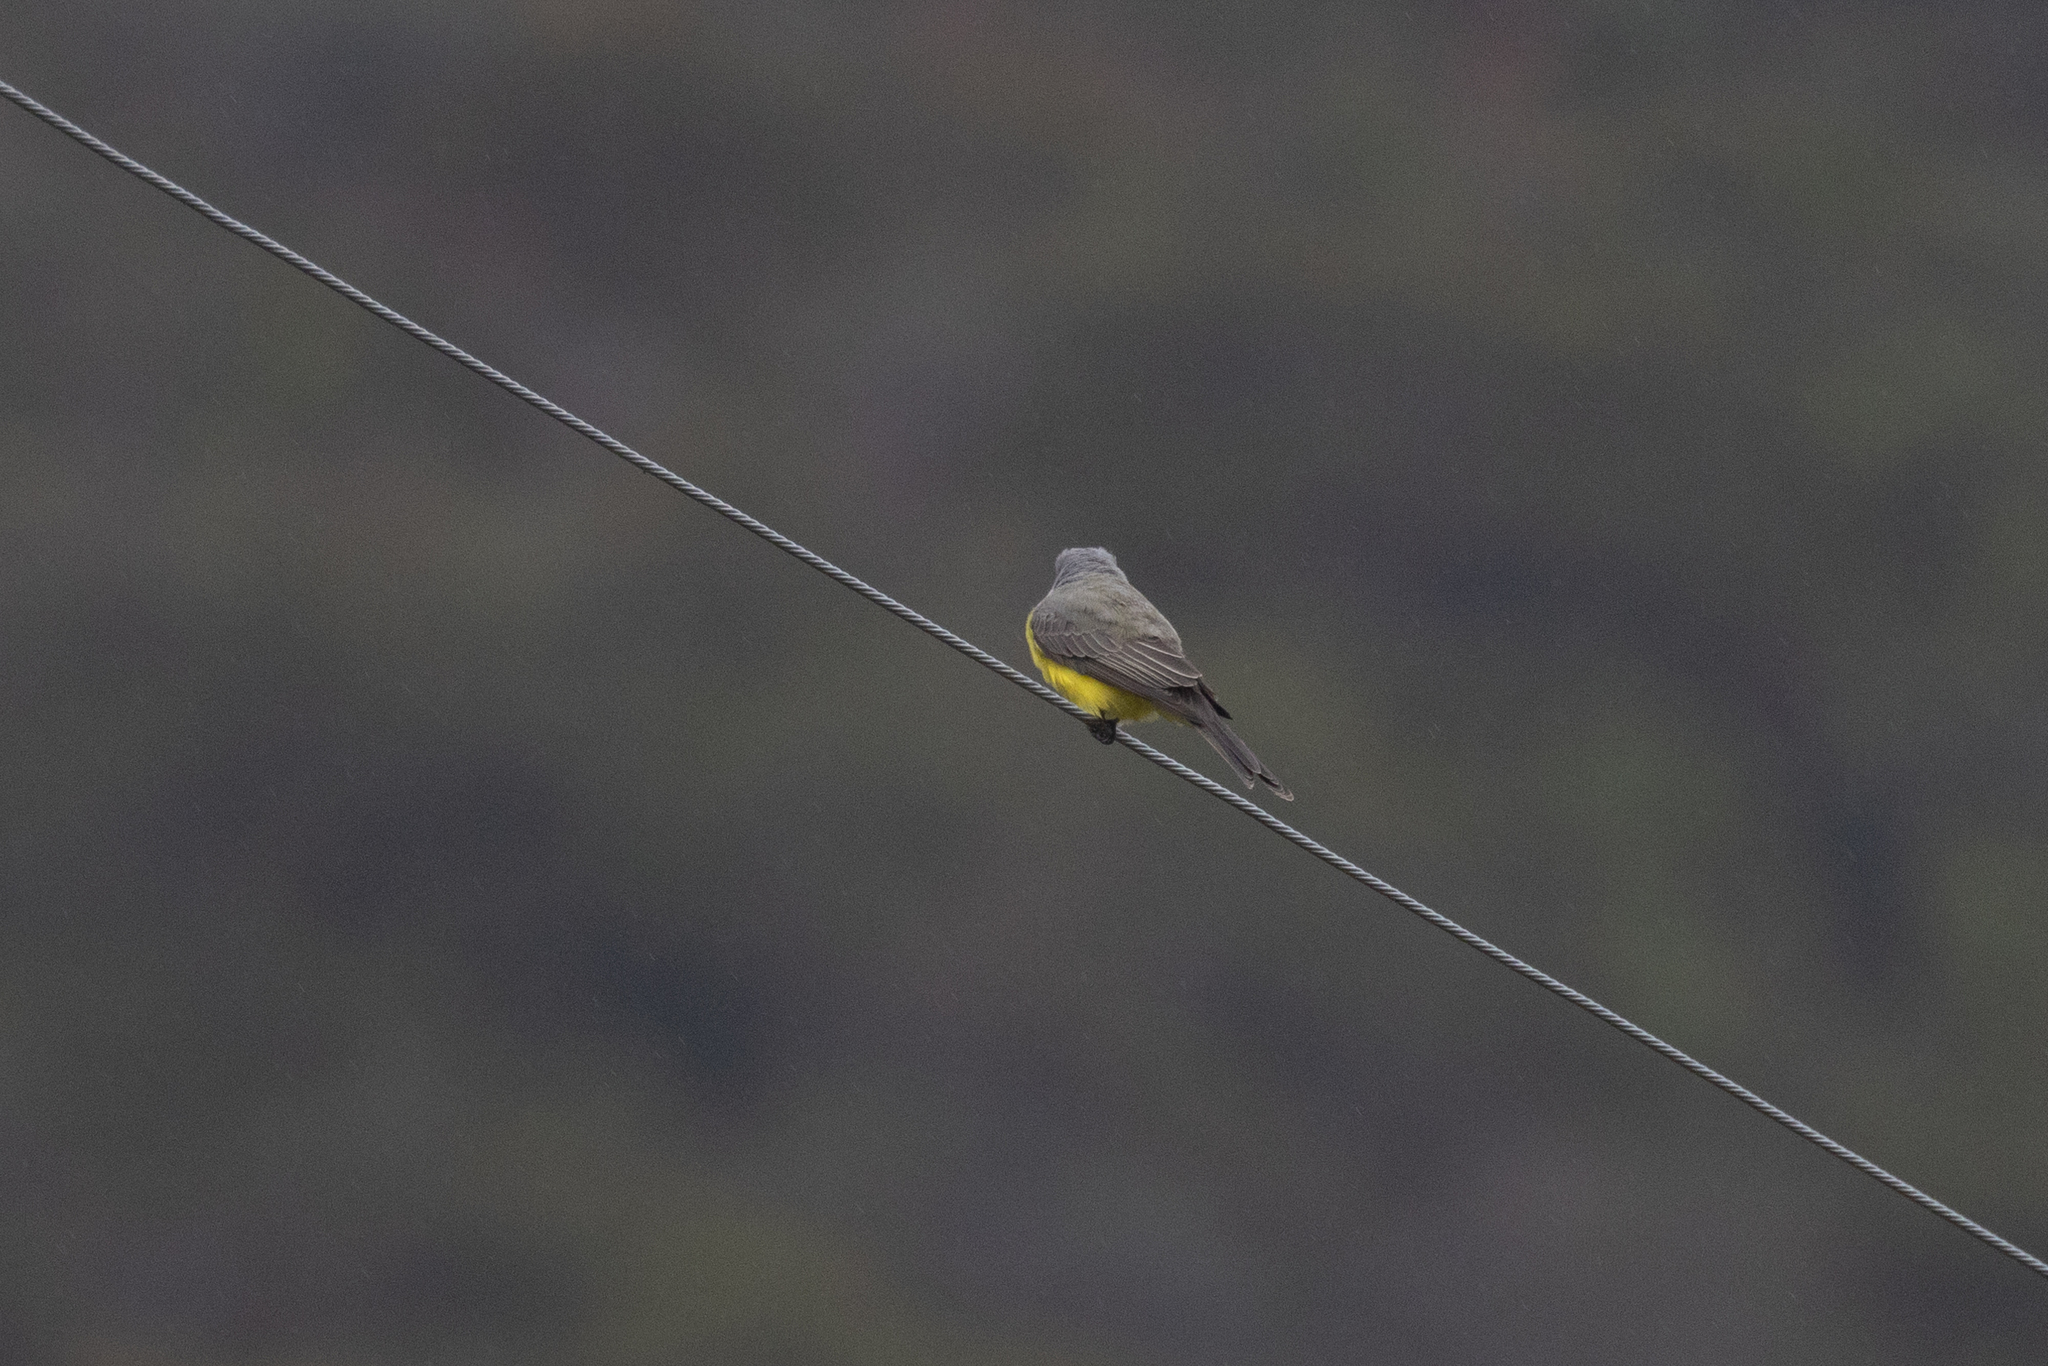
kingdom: Animalia
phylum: Chordata
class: Aves
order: Passeriformes
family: Tyrannidae
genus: Tyrannus
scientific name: Tyrannus melancholicus
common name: Tropical kingbird
